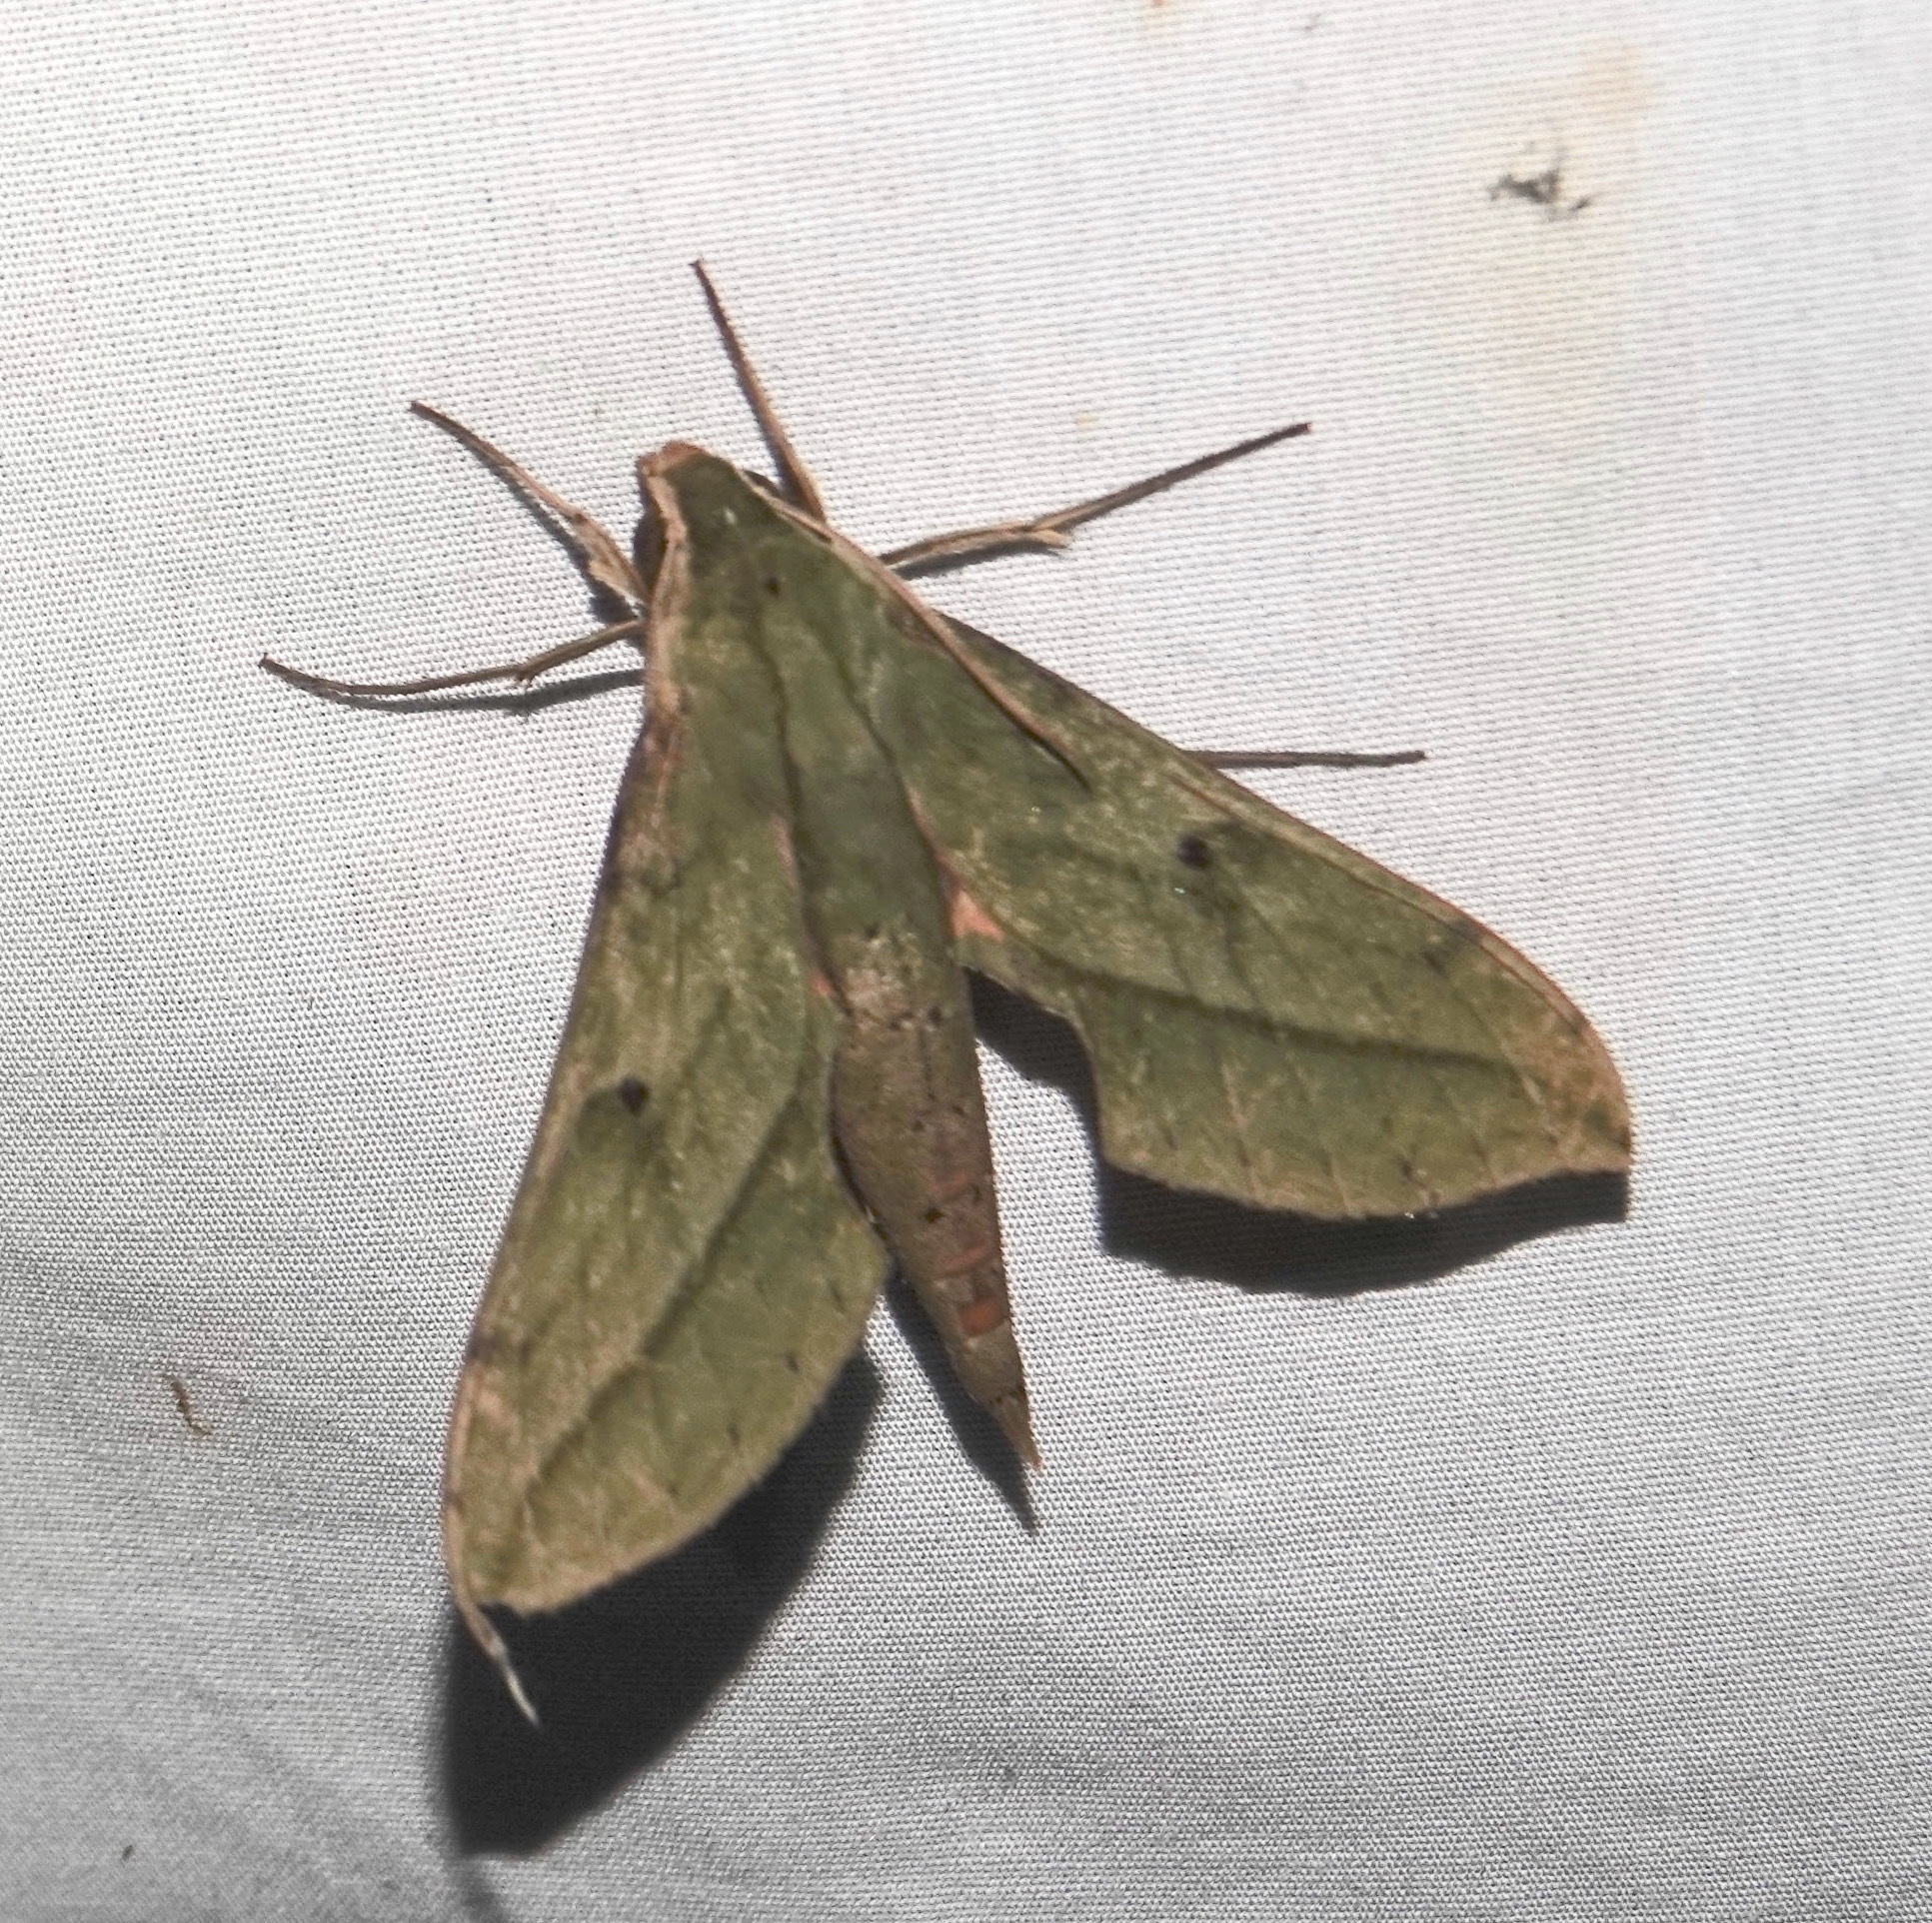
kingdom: Animalia
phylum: Arthropoda
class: Insecta
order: Lepidoptera
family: Sphingidae
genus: Xylophanes
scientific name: Xylophanes fassli
